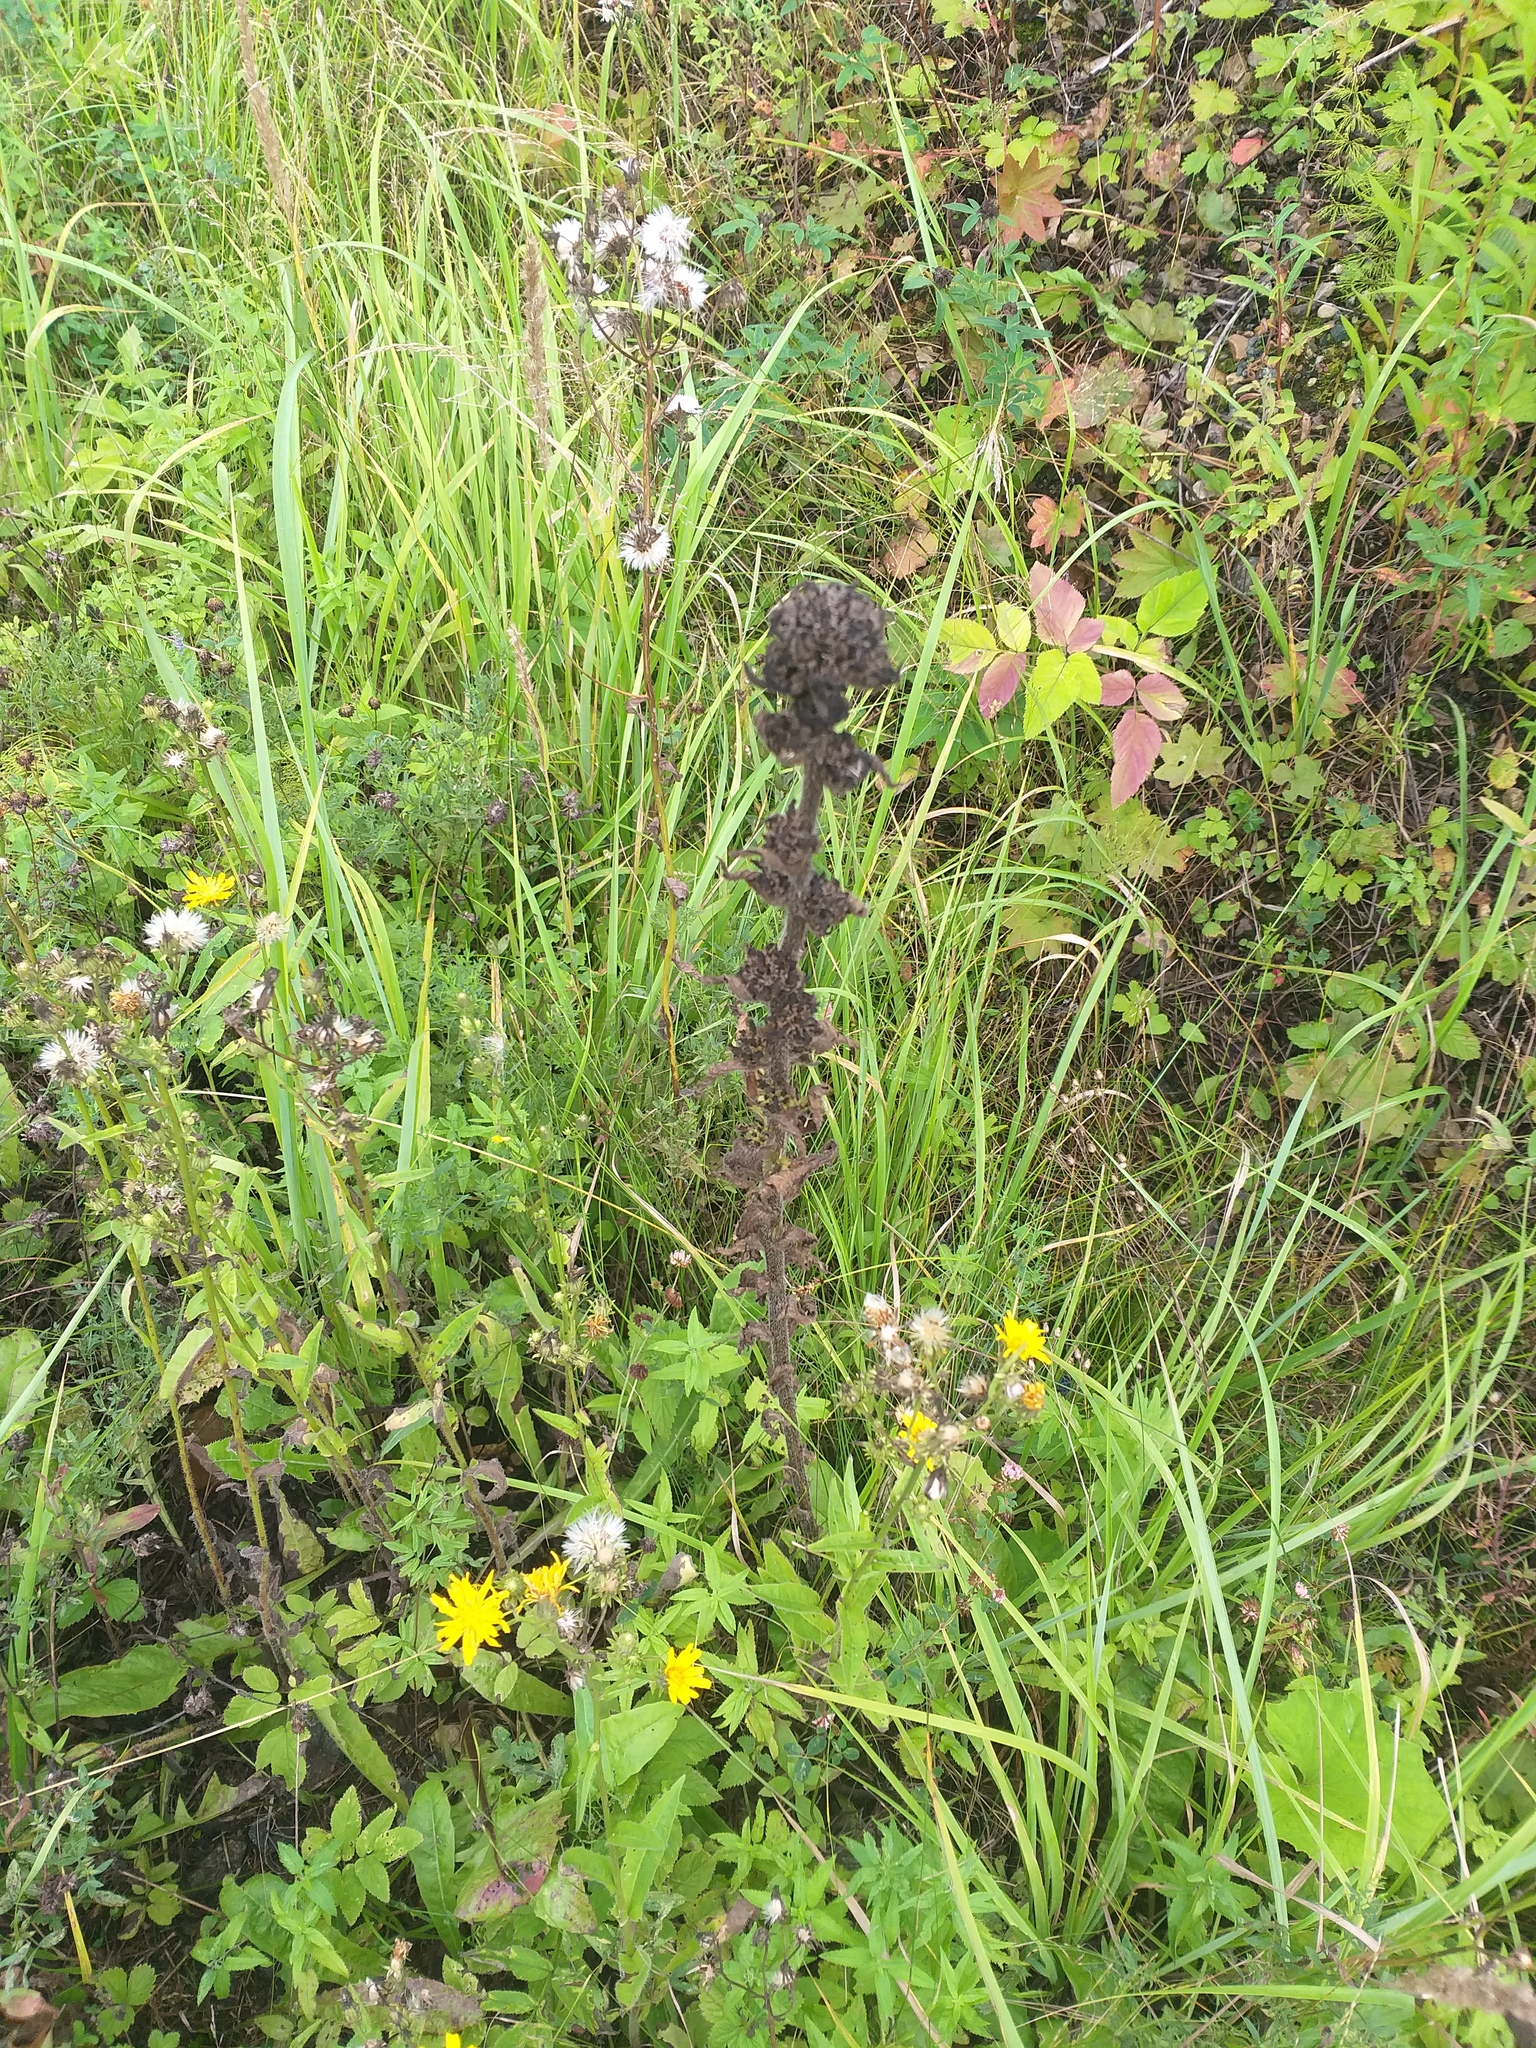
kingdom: Plantae
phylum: Tracheophyta
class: Magnoliopsida
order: Asterales
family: Campanulaceae
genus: Campanula
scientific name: Campanula cervicaria
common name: Bristly bellflower
